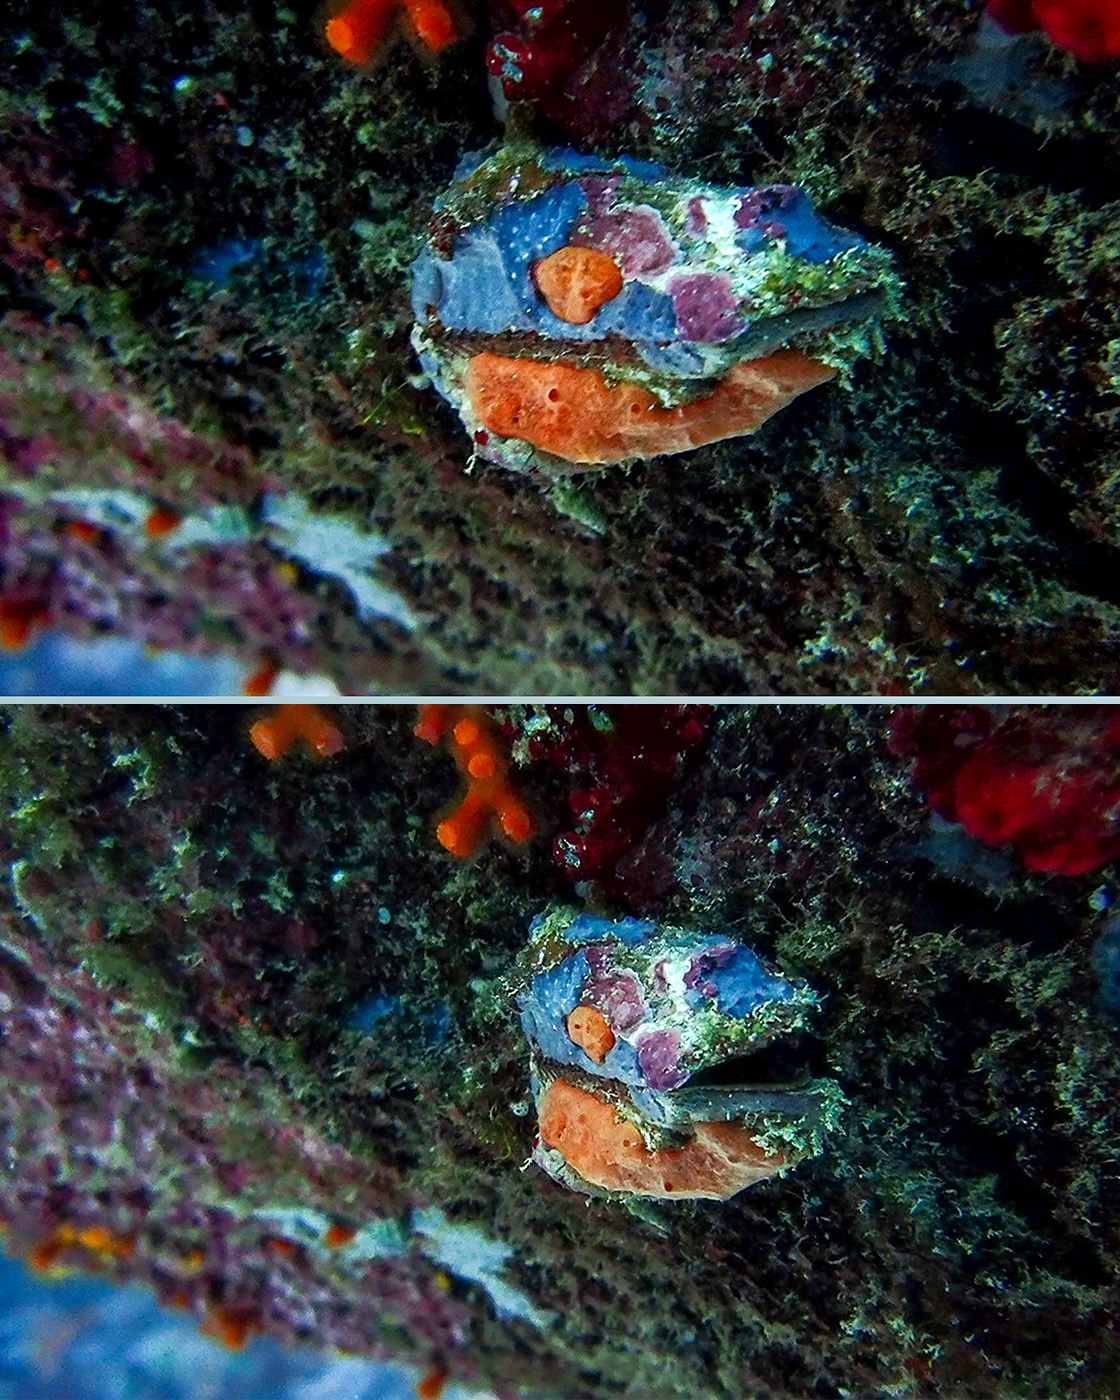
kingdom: Animalia
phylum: Mollusca
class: Bivalvia
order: Arcida
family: Arcidae
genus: Arca
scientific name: Arca noae
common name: Noah's arch
